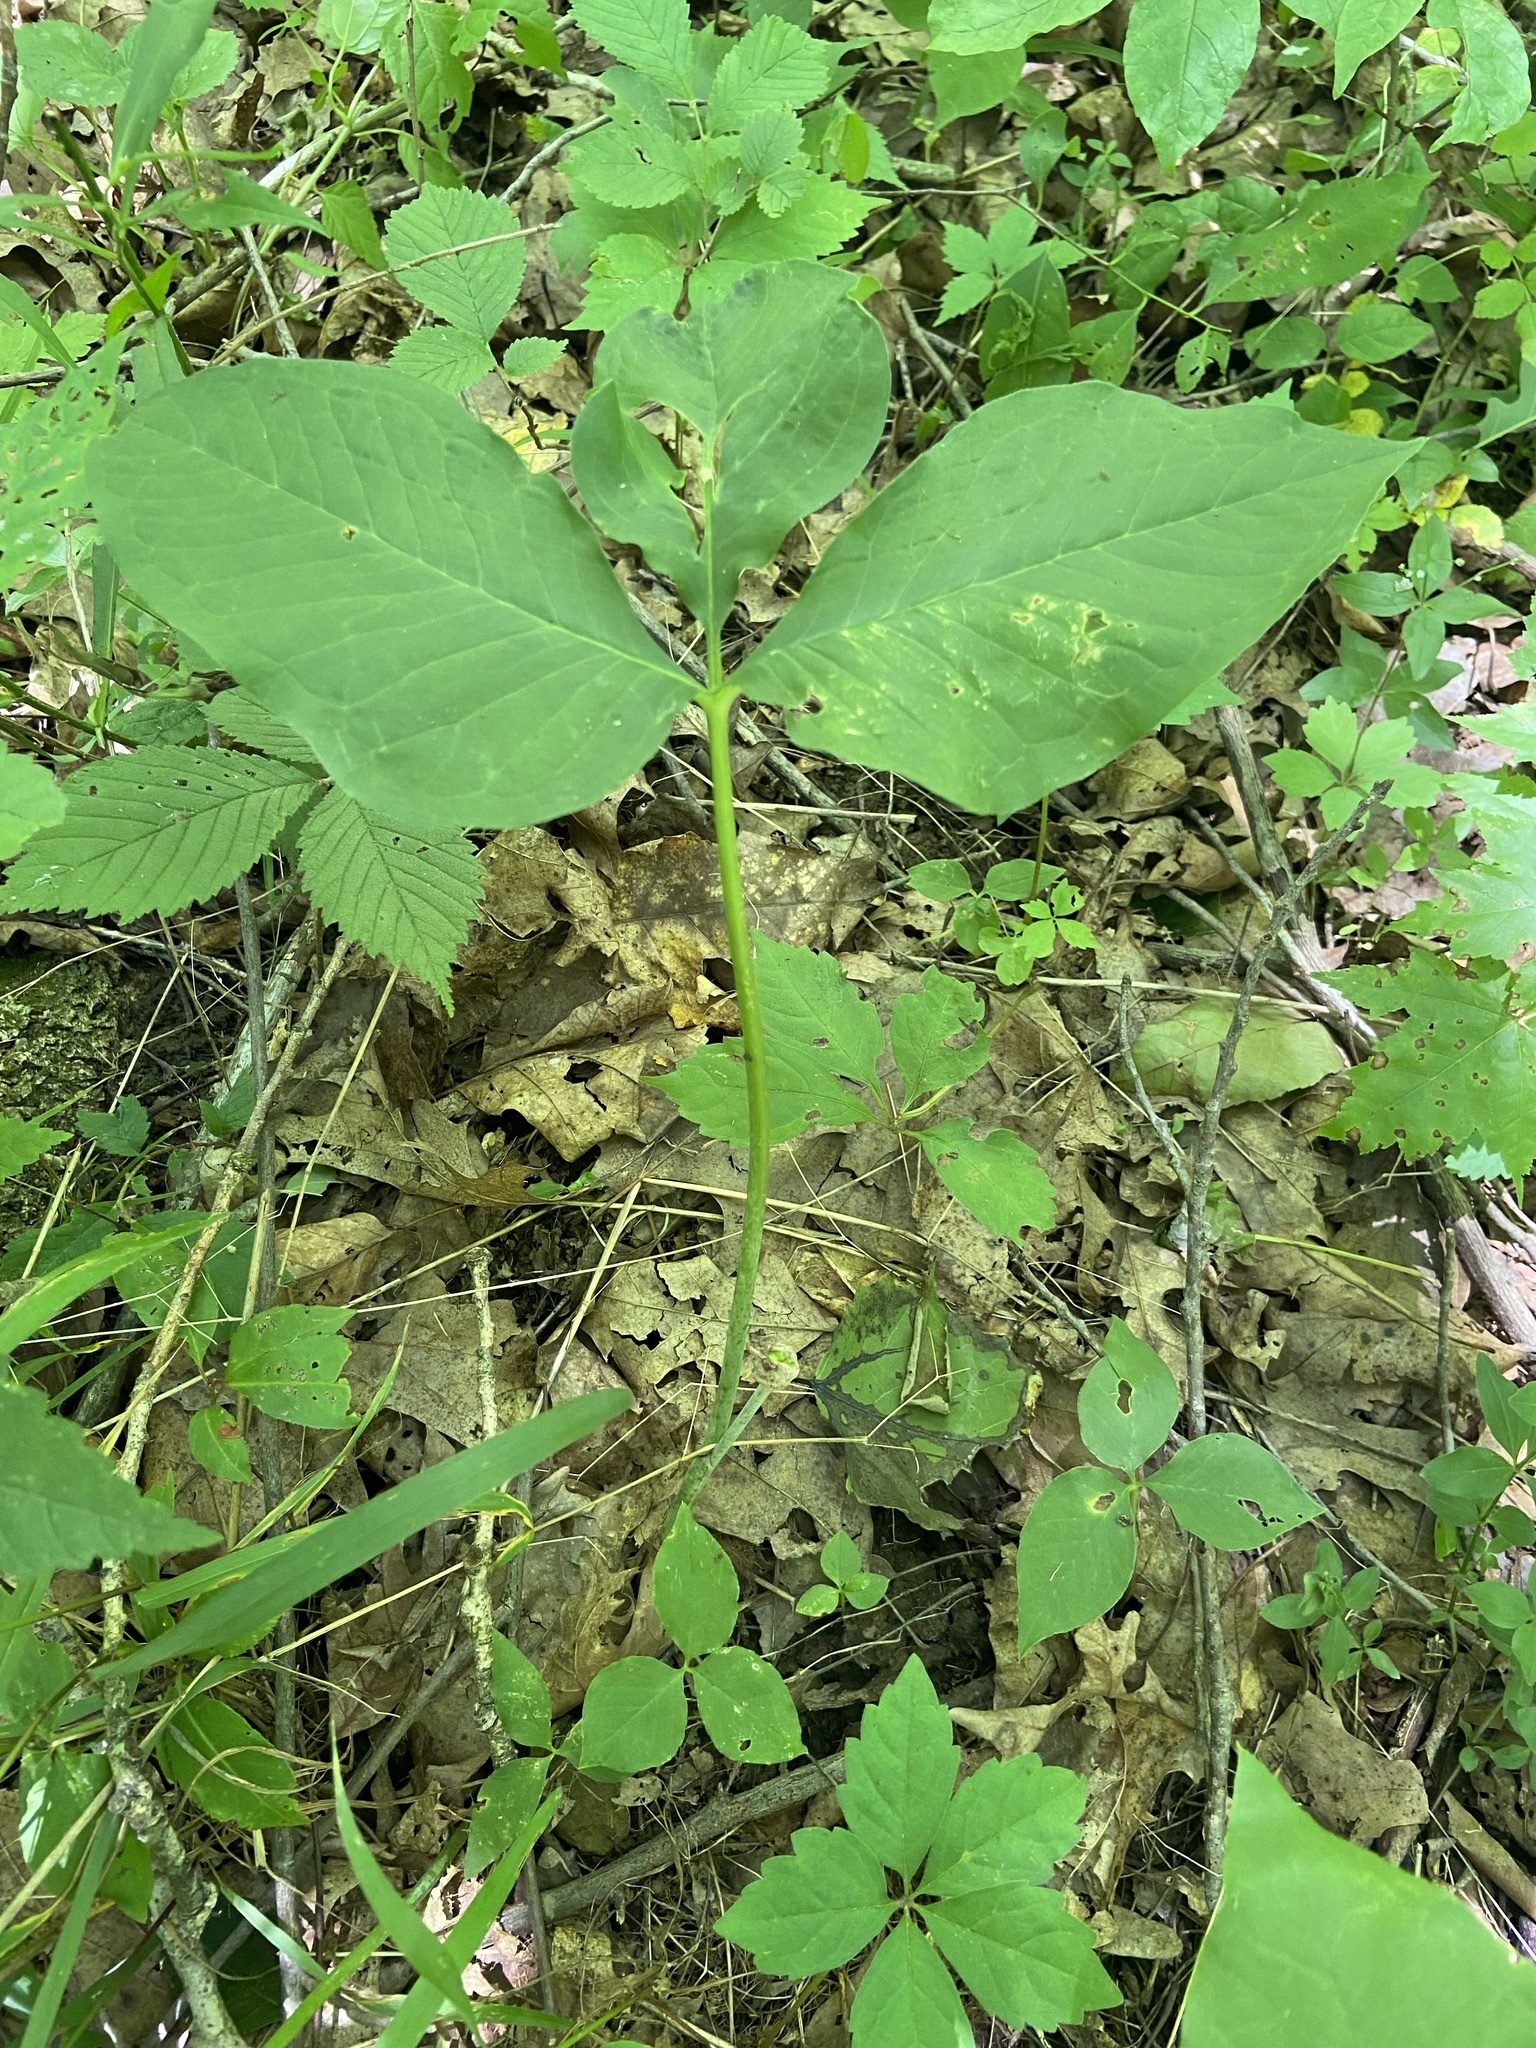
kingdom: Plantae
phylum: Tracheophyta
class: Liliopsida
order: Alismatales
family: Araceae
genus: Arisaema
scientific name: Arisaema triphyllum
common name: Jack-in-the-pulpit
